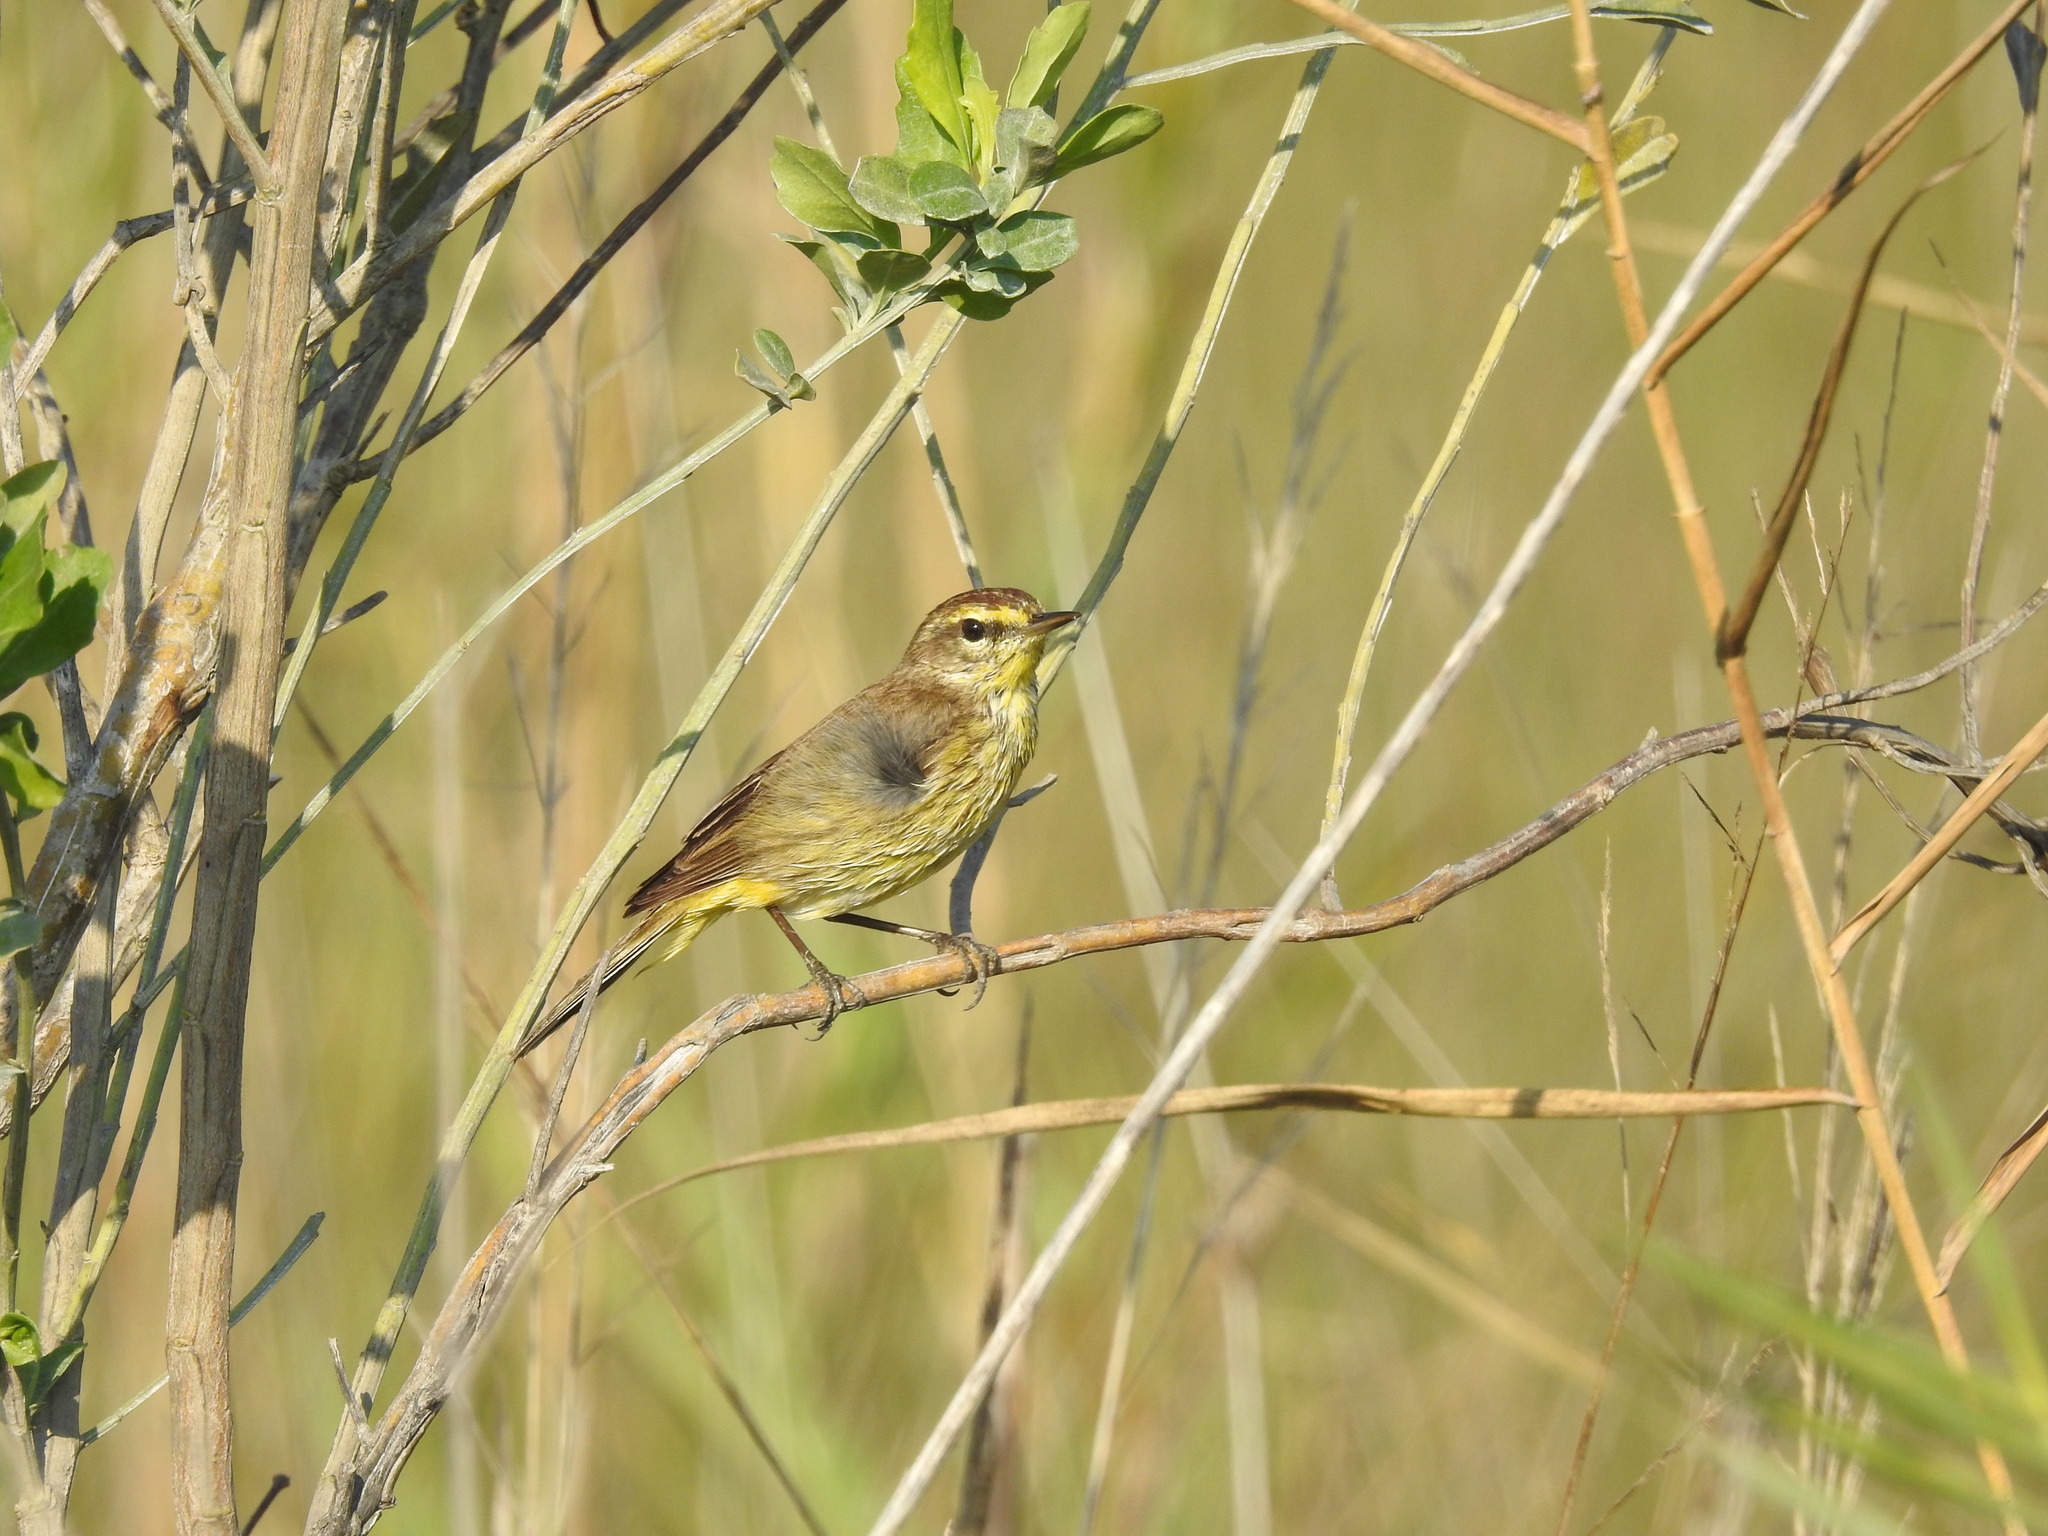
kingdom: Animalia
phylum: Chordata
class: Aves
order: Passeriformes
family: Parulidae
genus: Setophaga
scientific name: Setophaga palmarum
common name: Palm warbler
